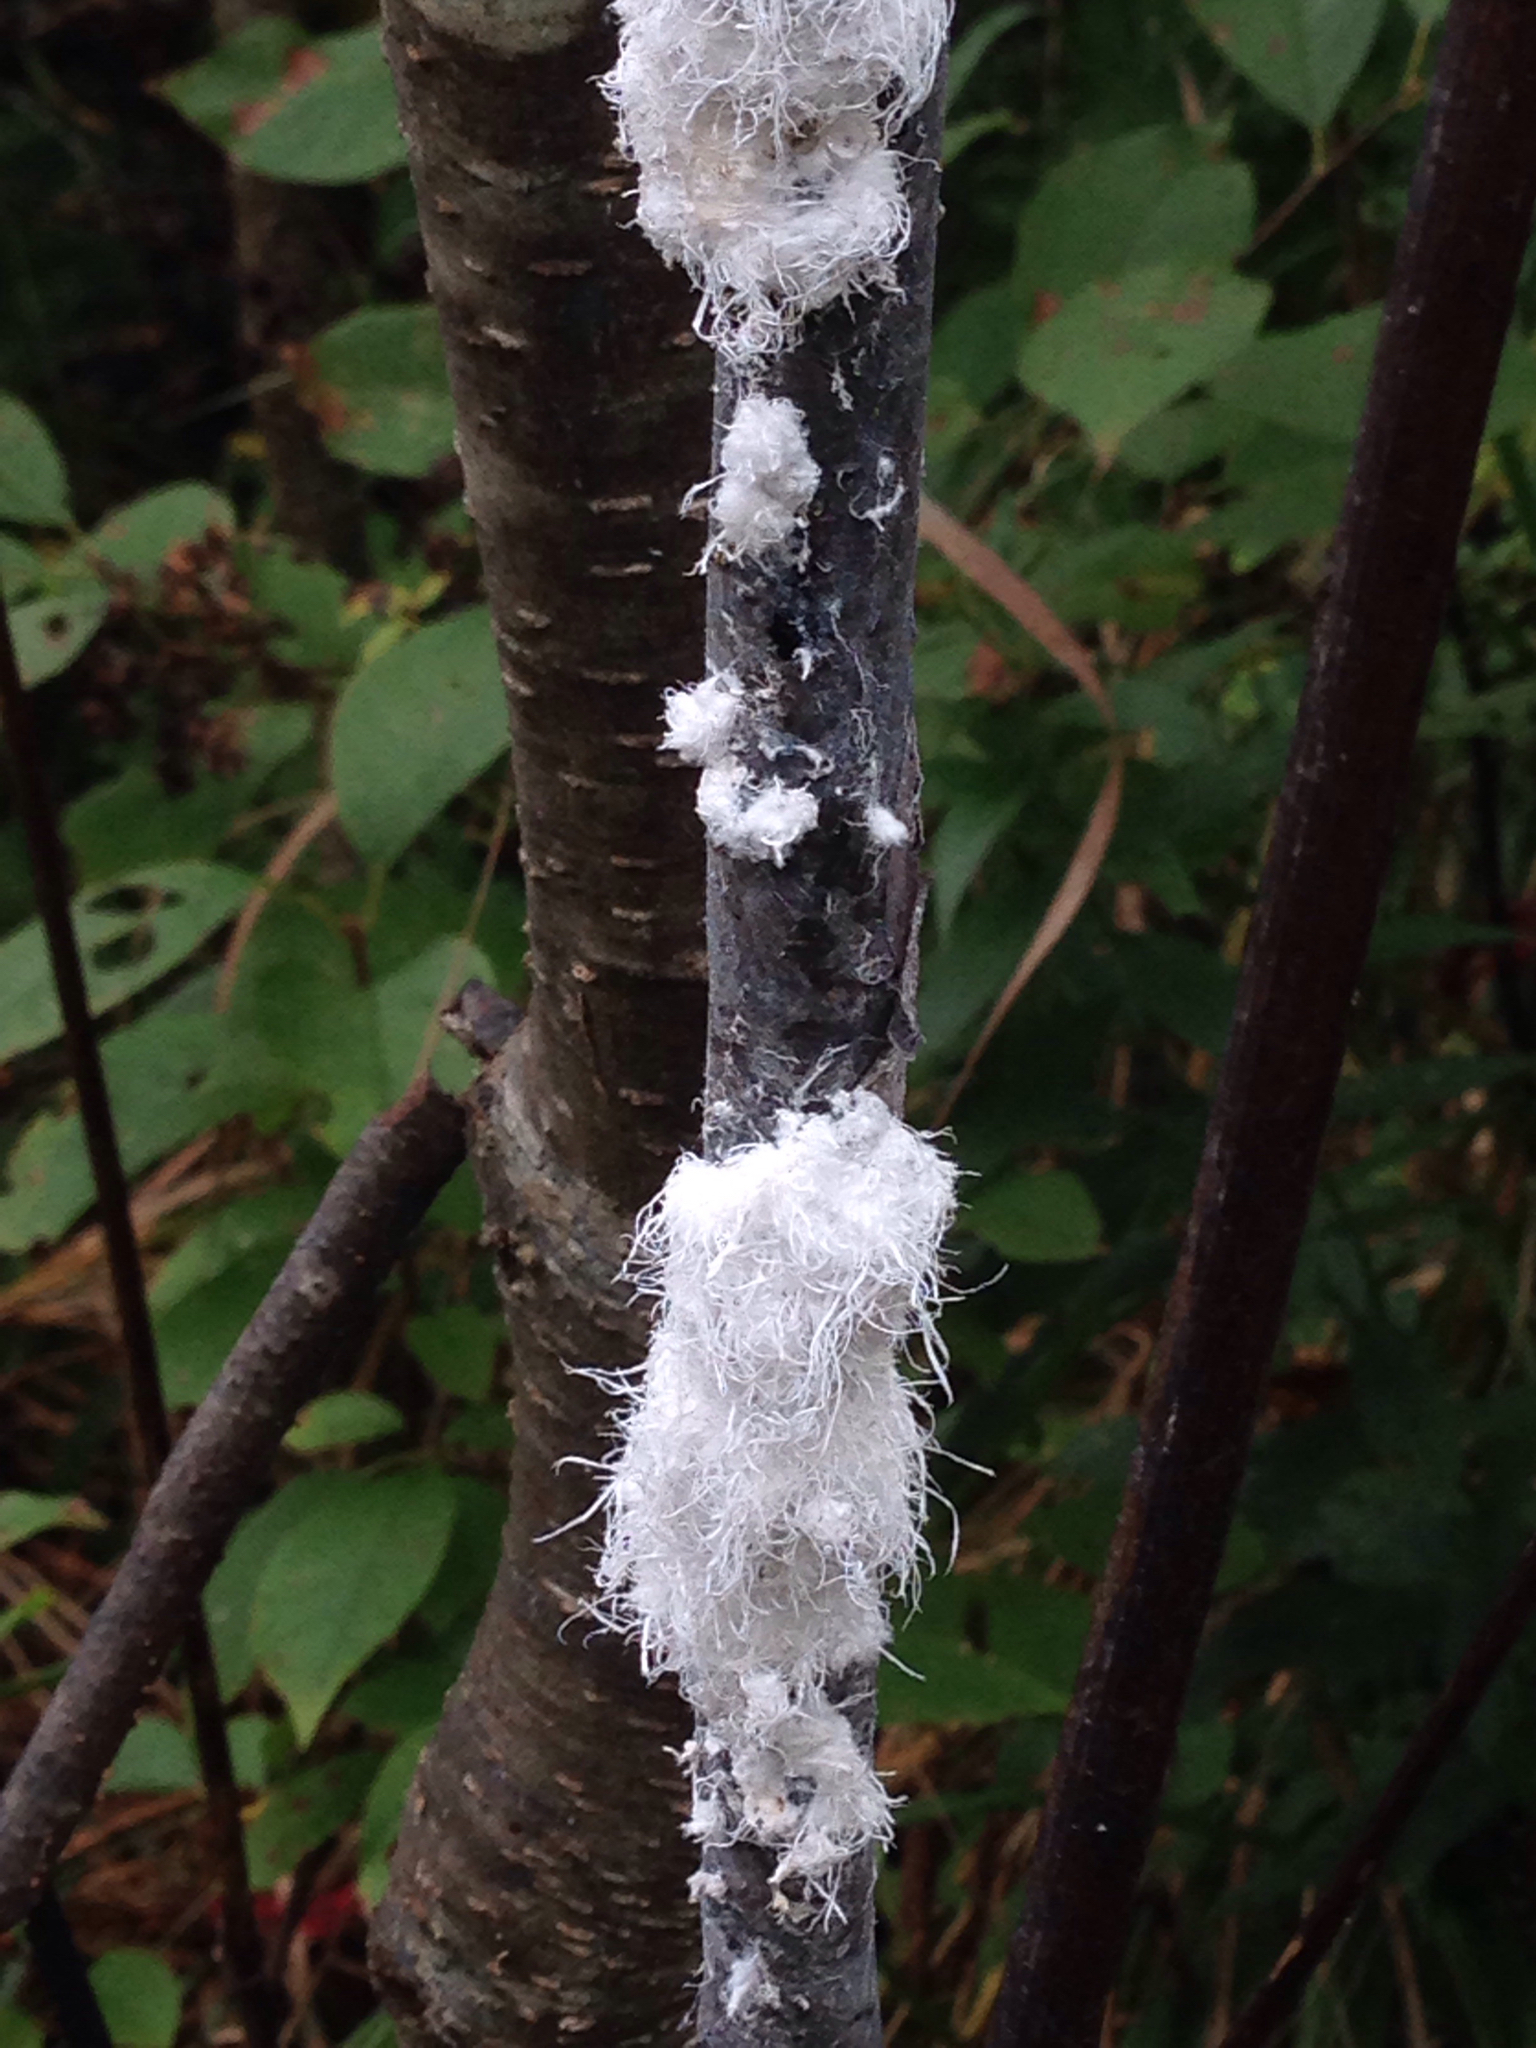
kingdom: Animalia
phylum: Arthropoda
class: Insecta
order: Hemiptera
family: Aphididae
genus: Prociphilus
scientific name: Prociphilus tessellatus
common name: Woolly alder aphid
